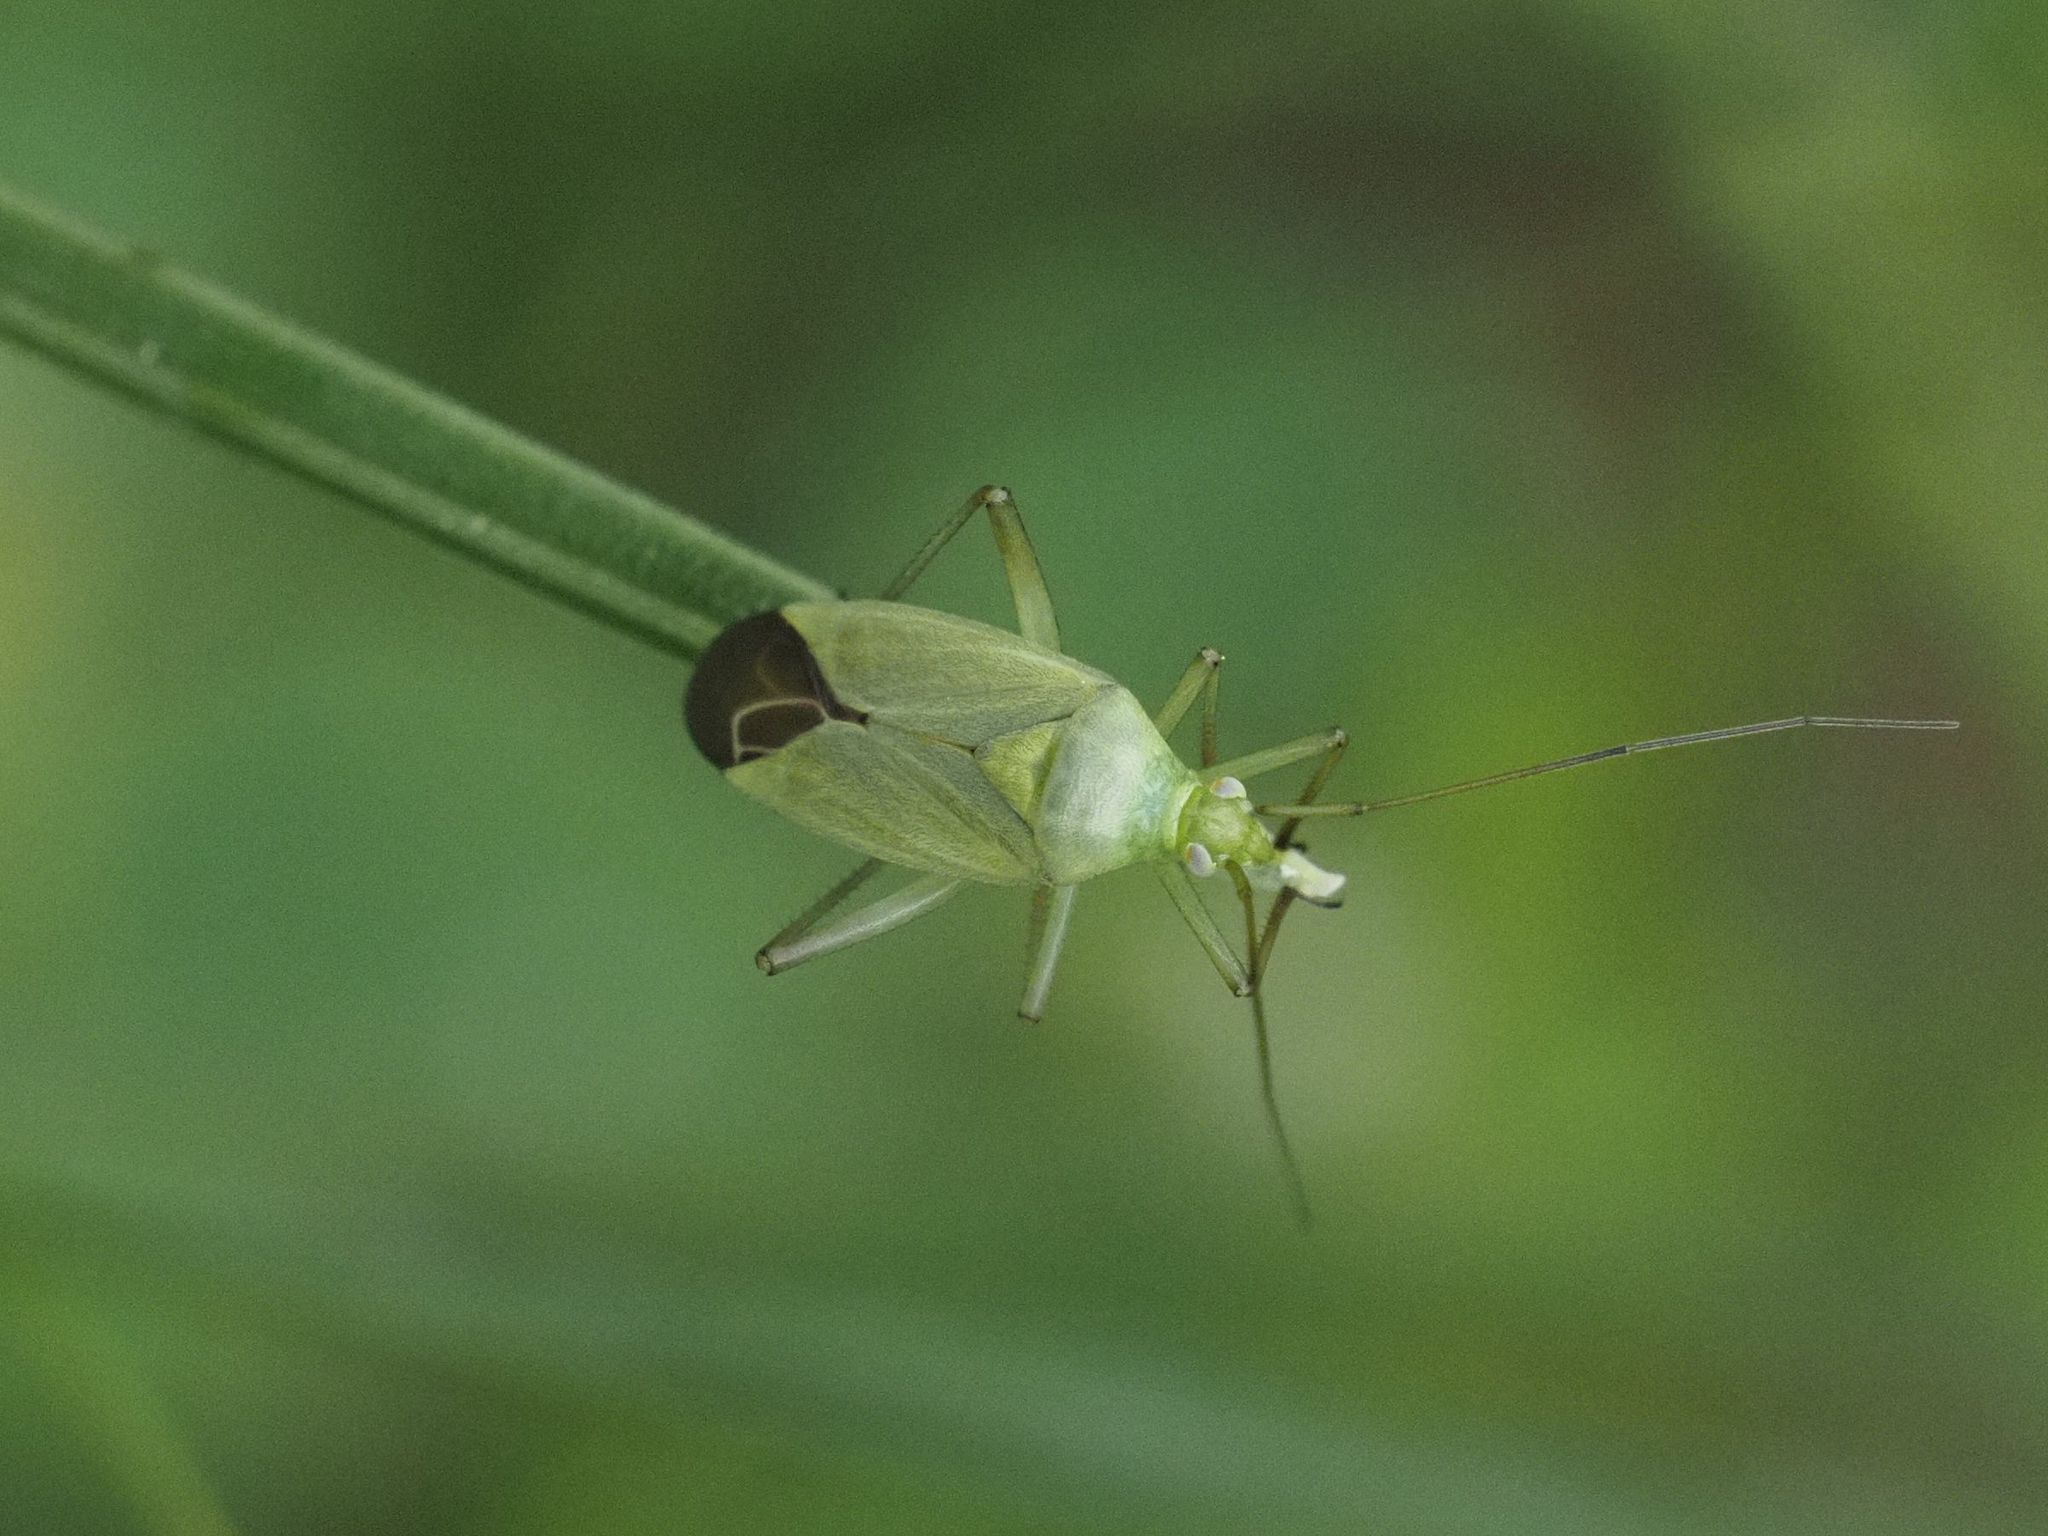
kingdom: Animalia
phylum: Arthropoda
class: Insecta
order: Hemiptera
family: Miridae
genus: Calocoris
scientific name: Calocoris affinis
